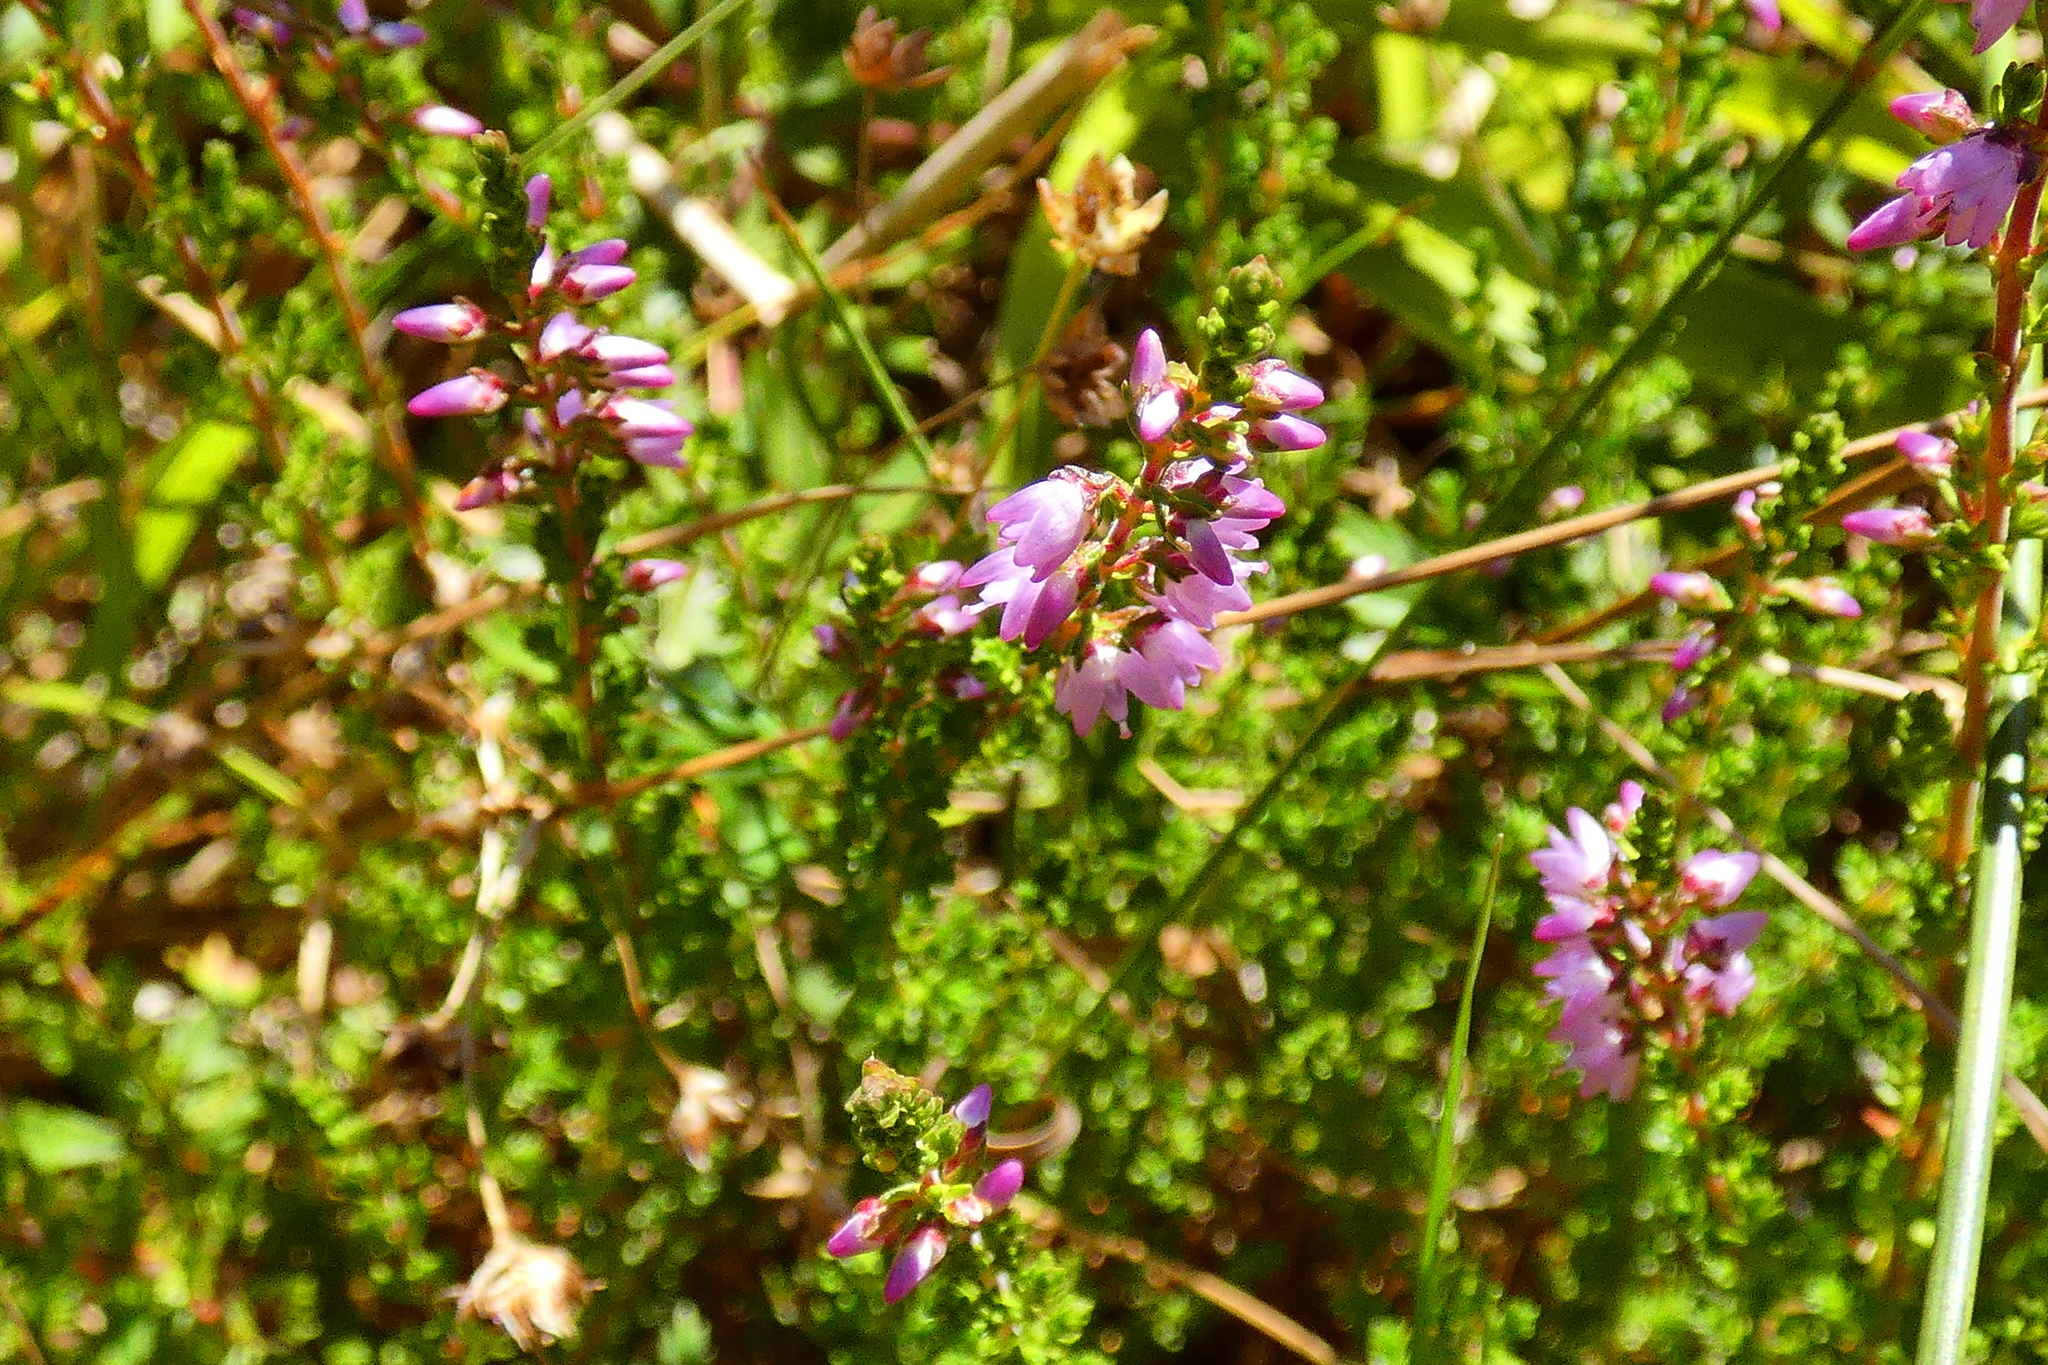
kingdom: Plantae
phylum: Tracheophyta
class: Magnoliopsida
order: Ericales
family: Ericaceae
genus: Calluna
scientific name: Calluna vulgaris
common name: Heather
